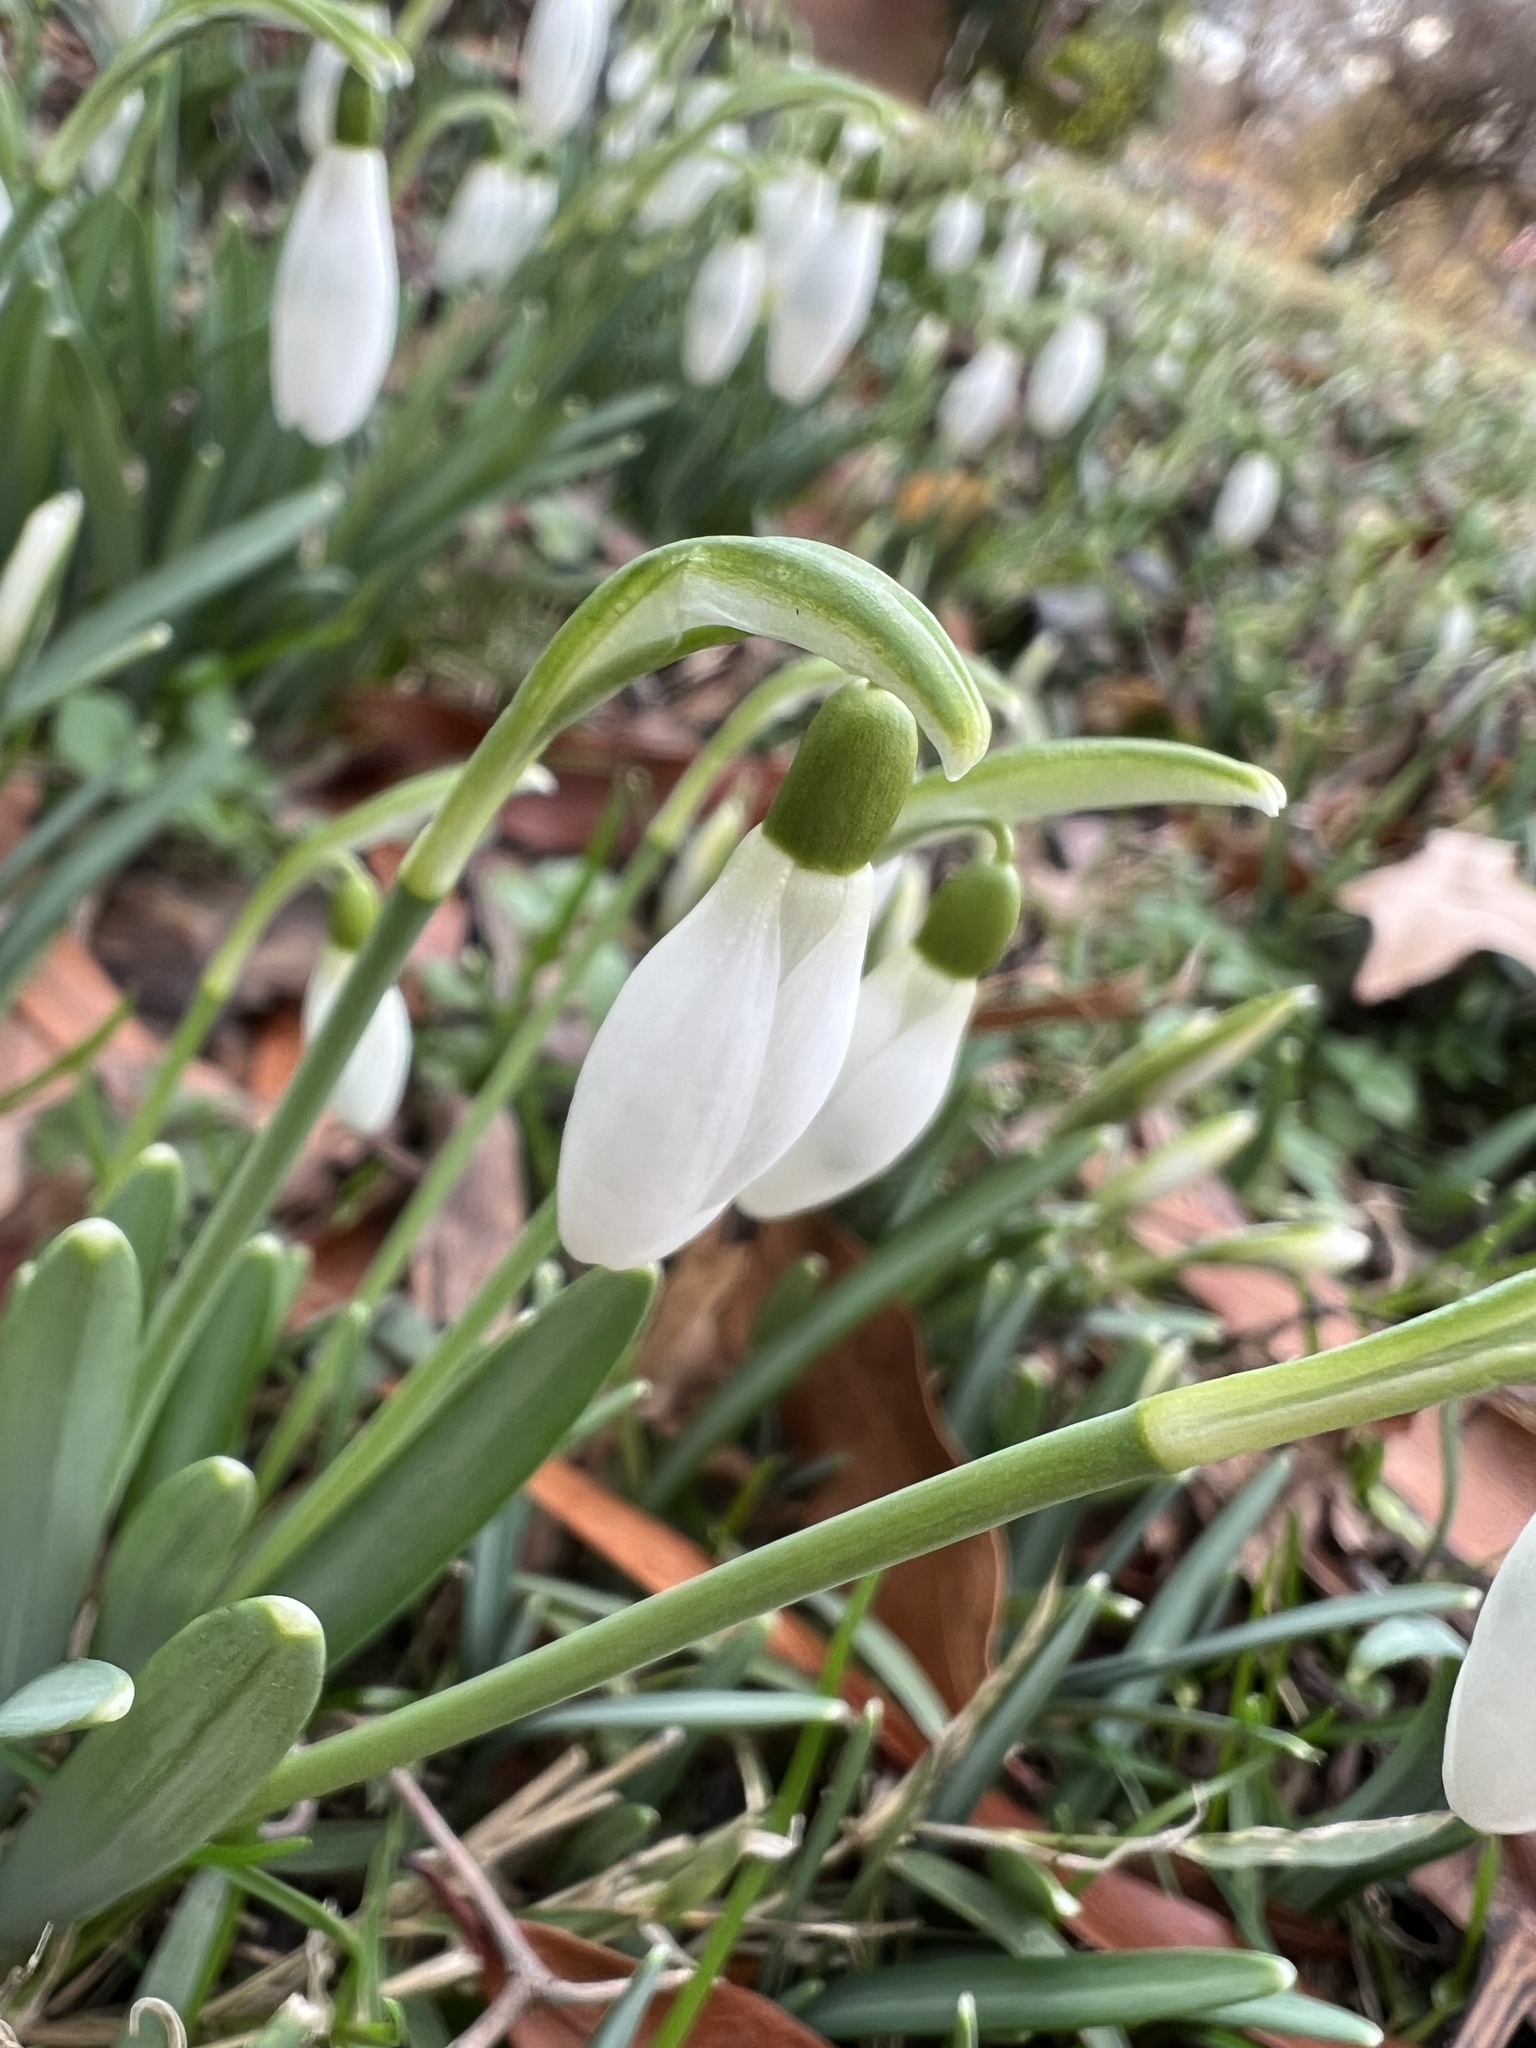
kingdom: Plantae
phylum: Tracheophyta
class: Liliopsida
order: Asparagales
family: Amaryllidaceae
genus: Galanthus
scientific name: Galanthus nivalis
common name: Snowdrop
